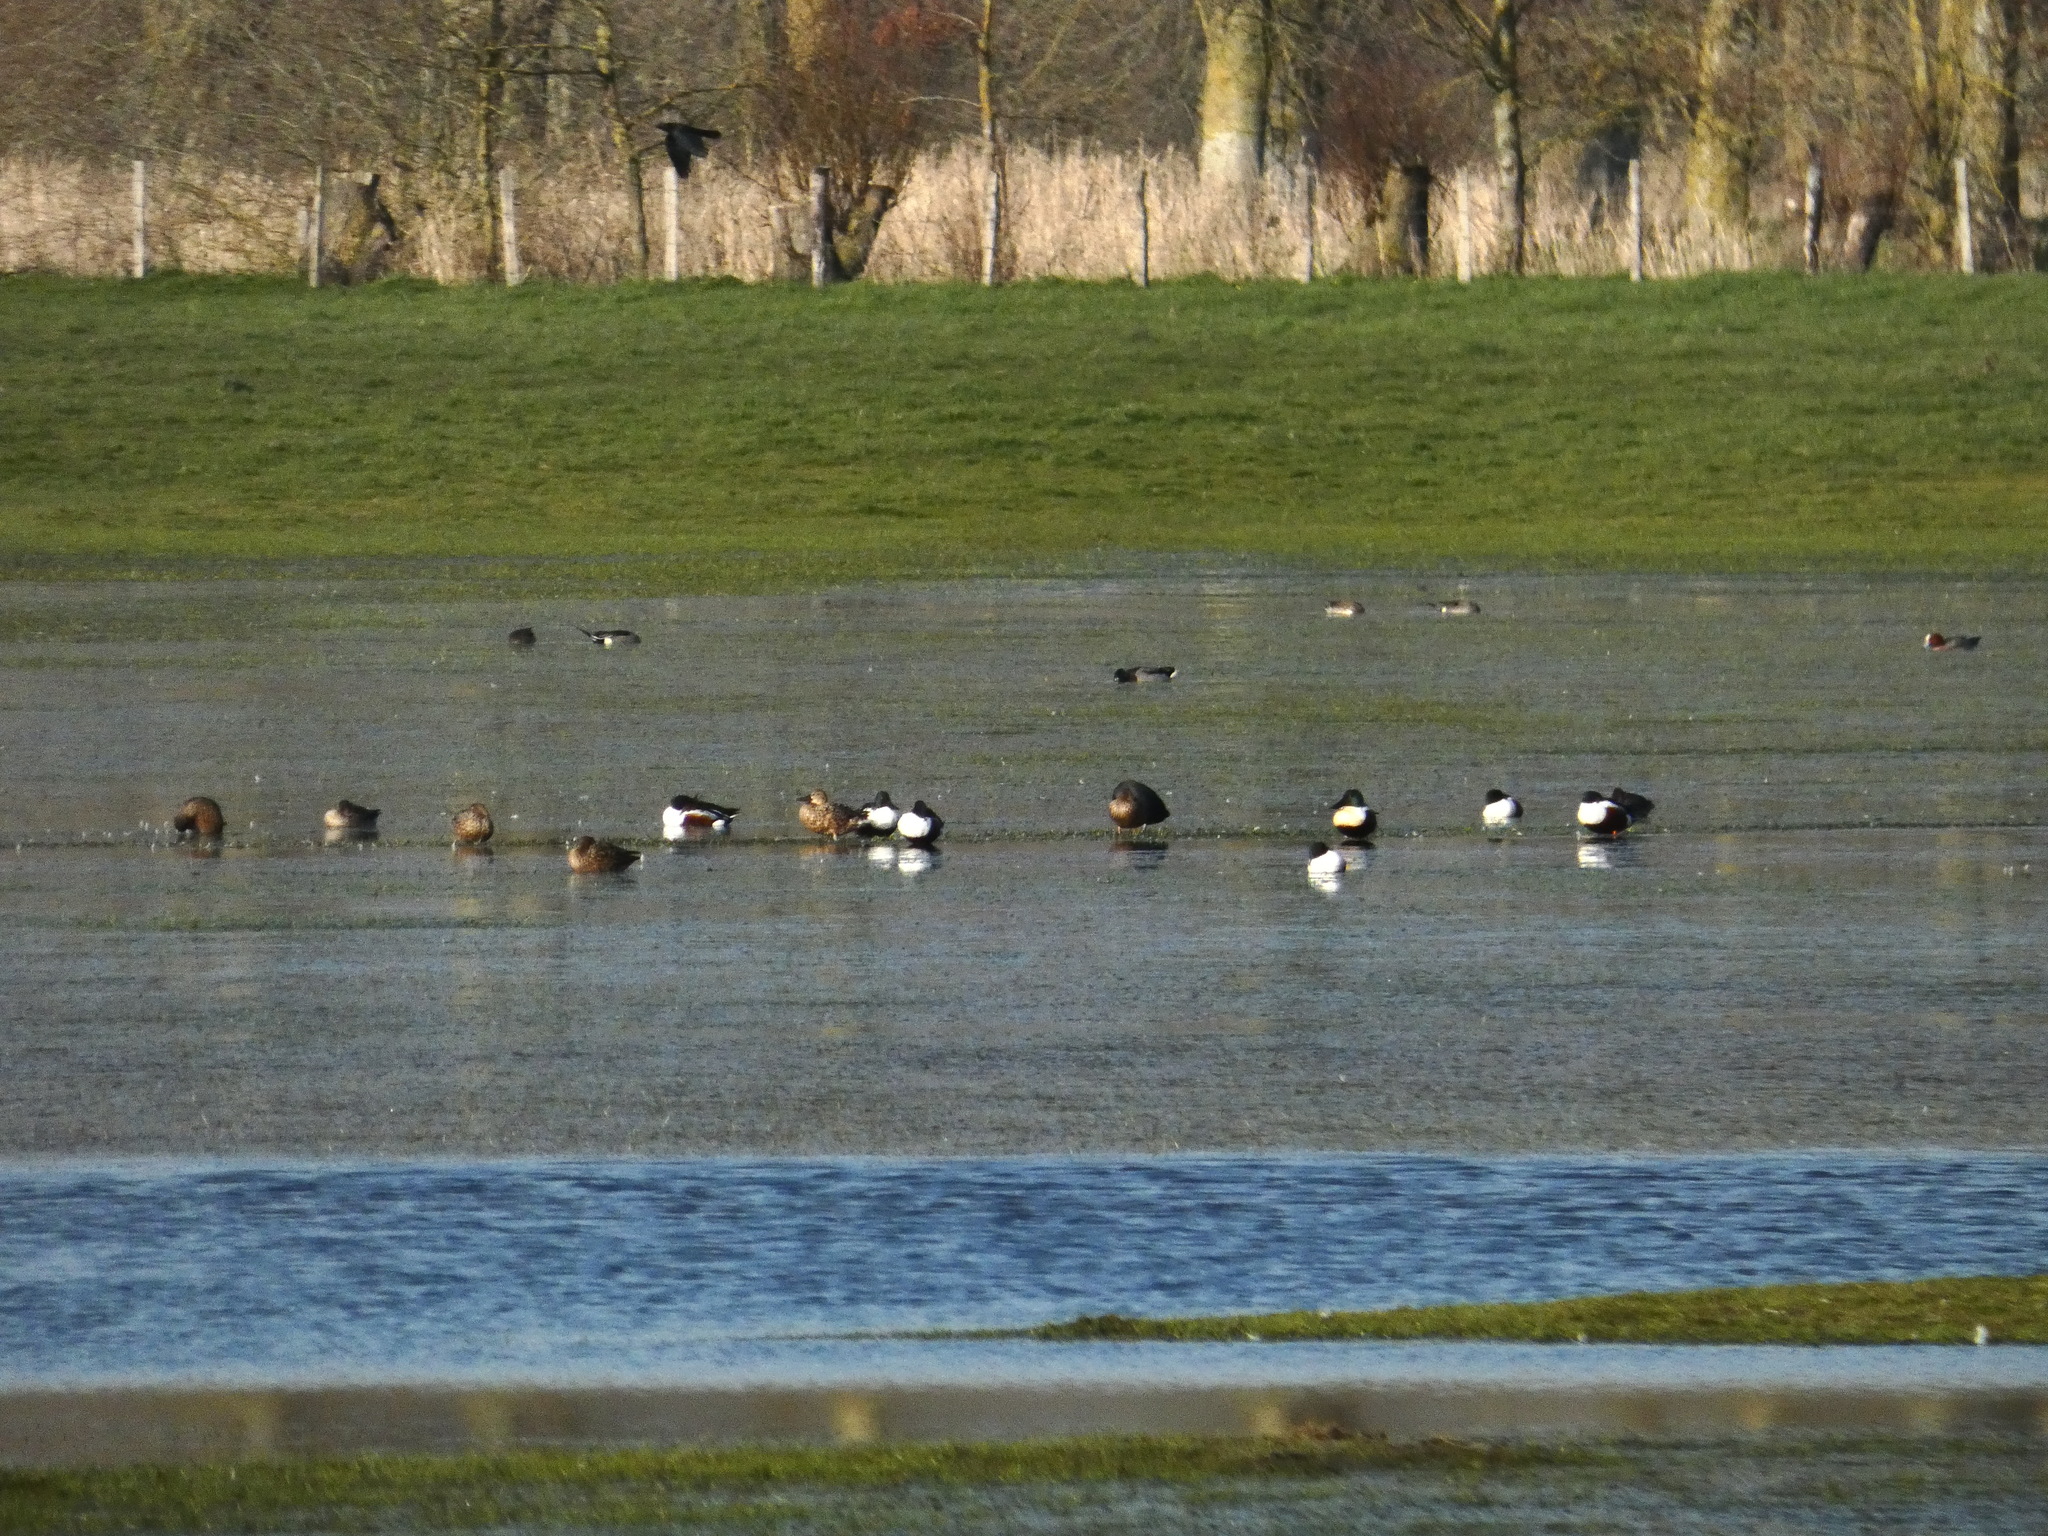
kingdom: Animalia
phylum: Chordata
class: Aves
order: Anseriformes
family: Anatidae
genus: Spatula
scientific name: Spatula clypeata
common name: Northern shoveler
